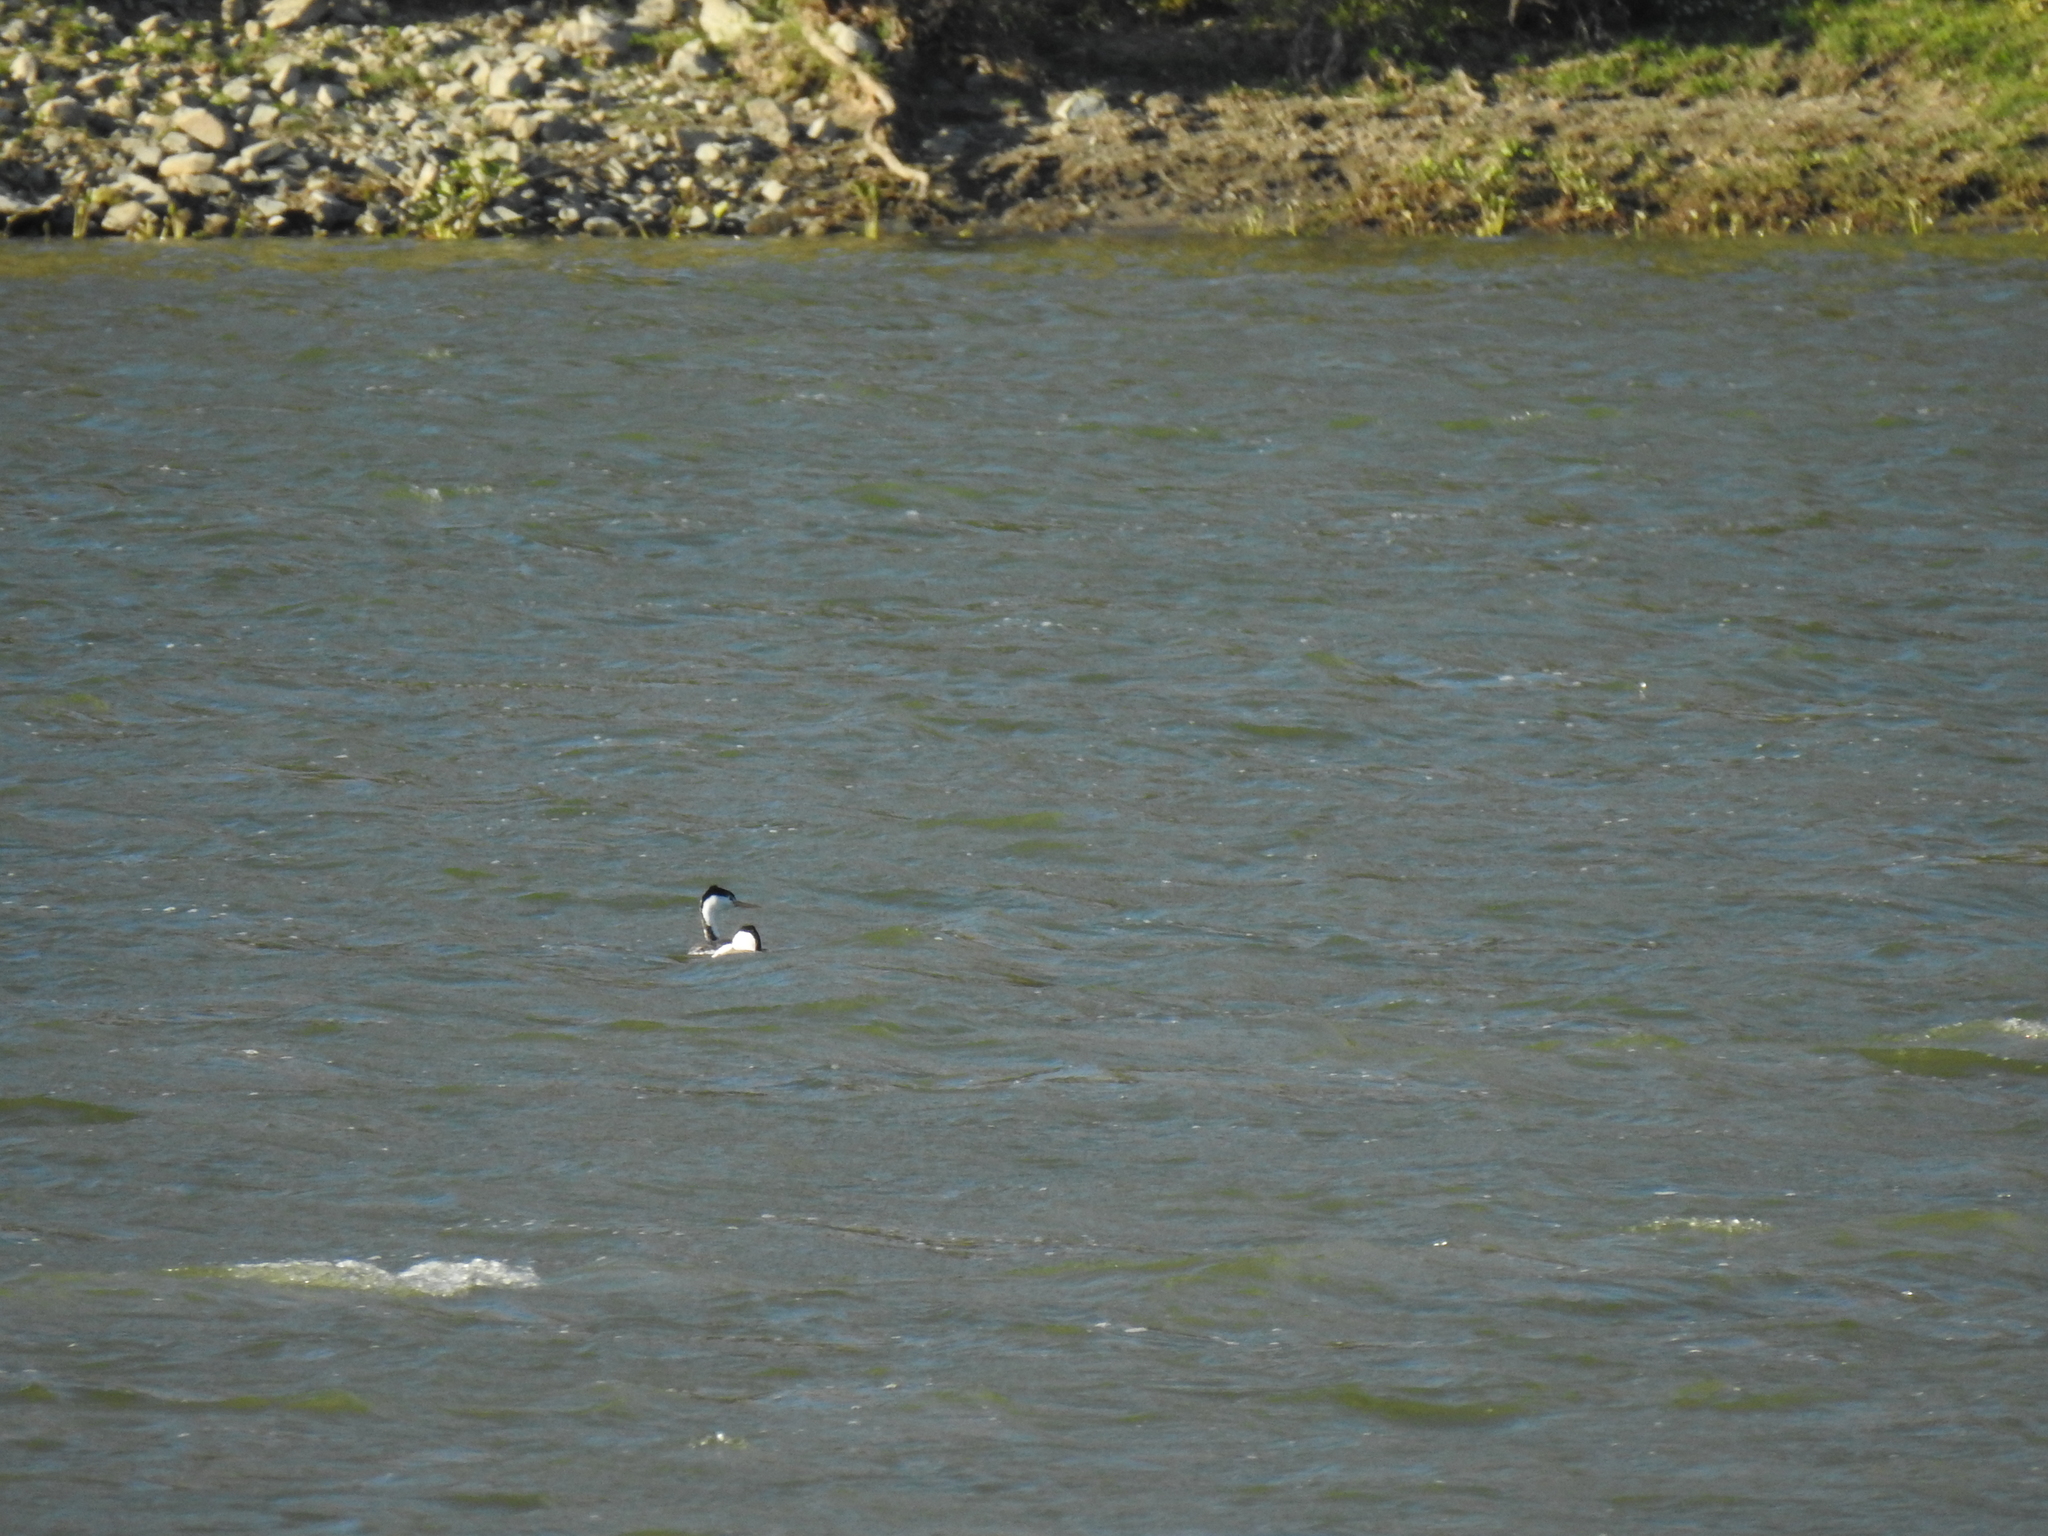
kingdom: Animalia
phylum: Chordata
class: Aves
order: Podicipediformes
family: Podicipedidae
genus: Aechmophorus
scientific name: Aechmophorus clarkii
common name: Clark's grebe
